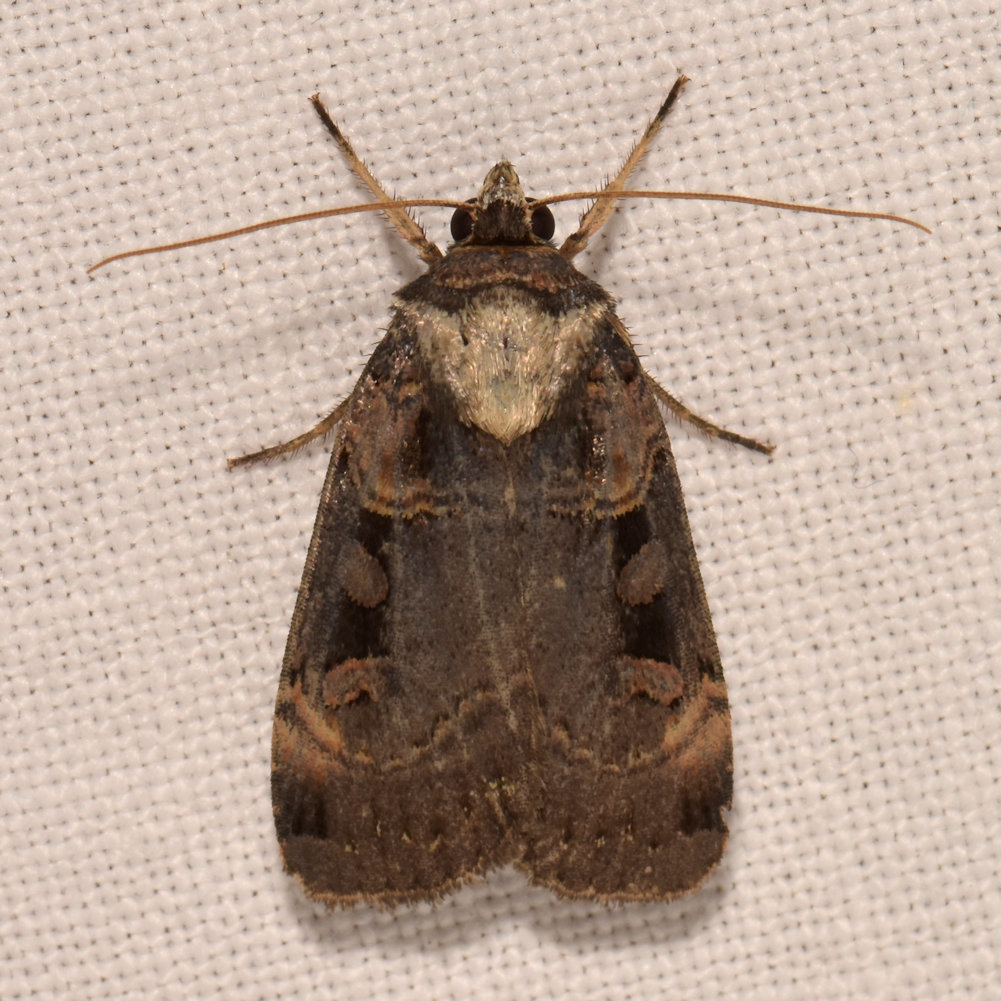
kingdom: Animalia
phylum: Arthropoda
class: Insecta
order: Lepidoptera
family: Noctuidae
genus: Pseudohermonassa
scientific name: Pseudohermonassa bicarnea
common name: Pink spotted dart
